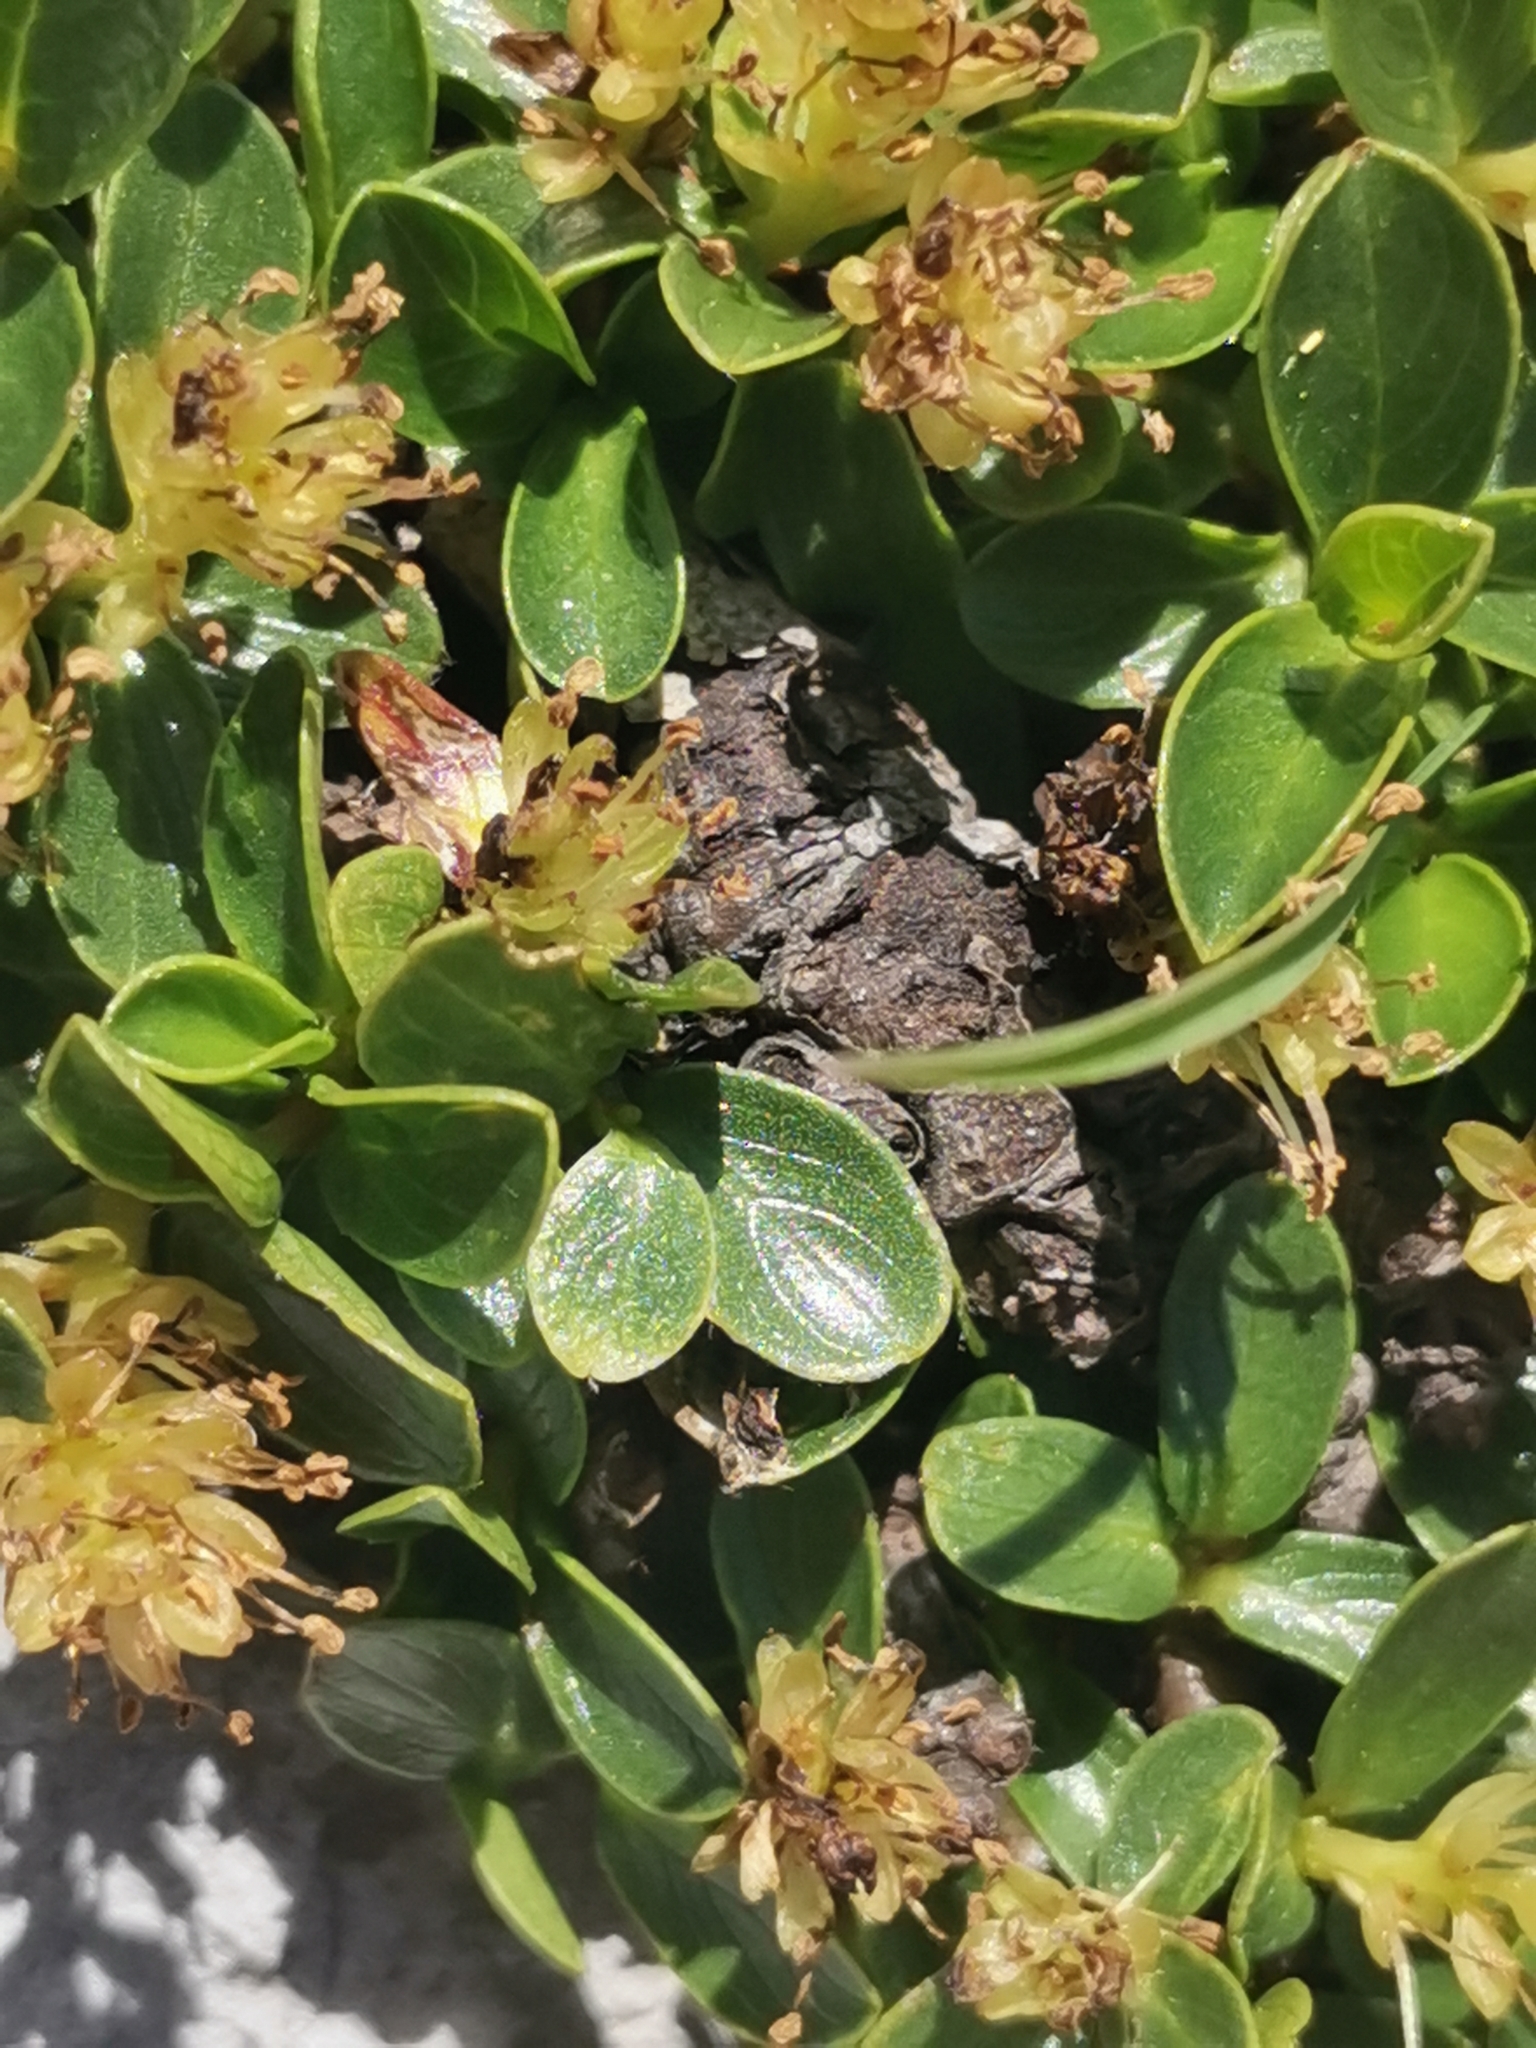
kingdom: Plantae
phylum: Tracheophyta
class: Magnoliopsida
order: Malpighiales
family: Salicaceae
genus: Salix
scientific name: Salix retusa
